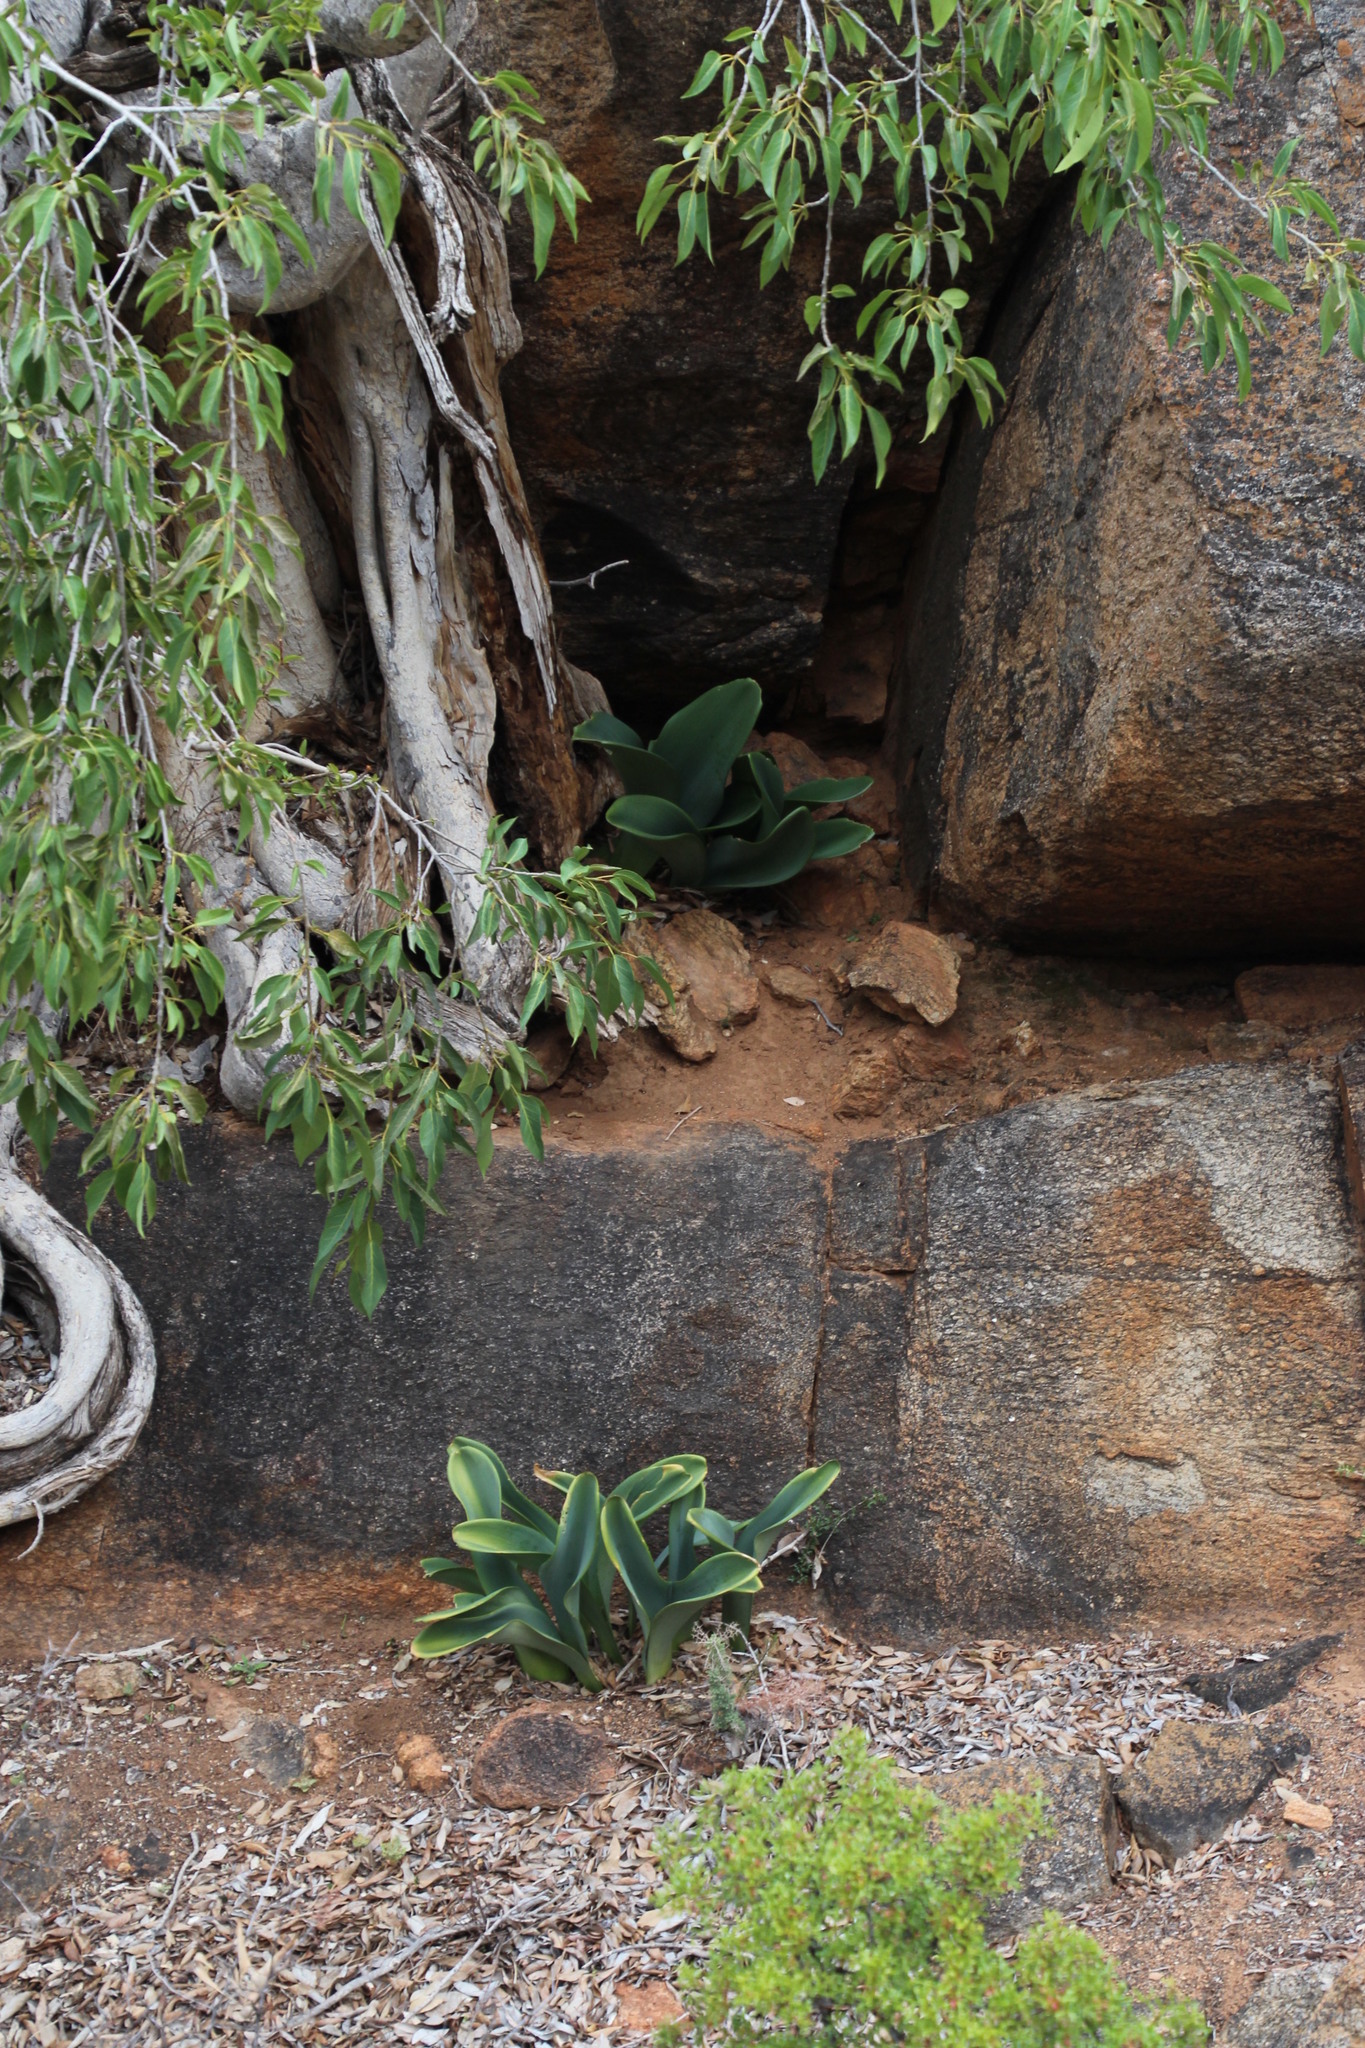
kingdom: Plantae
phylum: Tracheophyta
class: Liliopsida
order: Asparagales
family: Amaryllidaceae
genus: Haemanthus
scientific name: Haemanthus coccineus
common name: Cape-tulip
